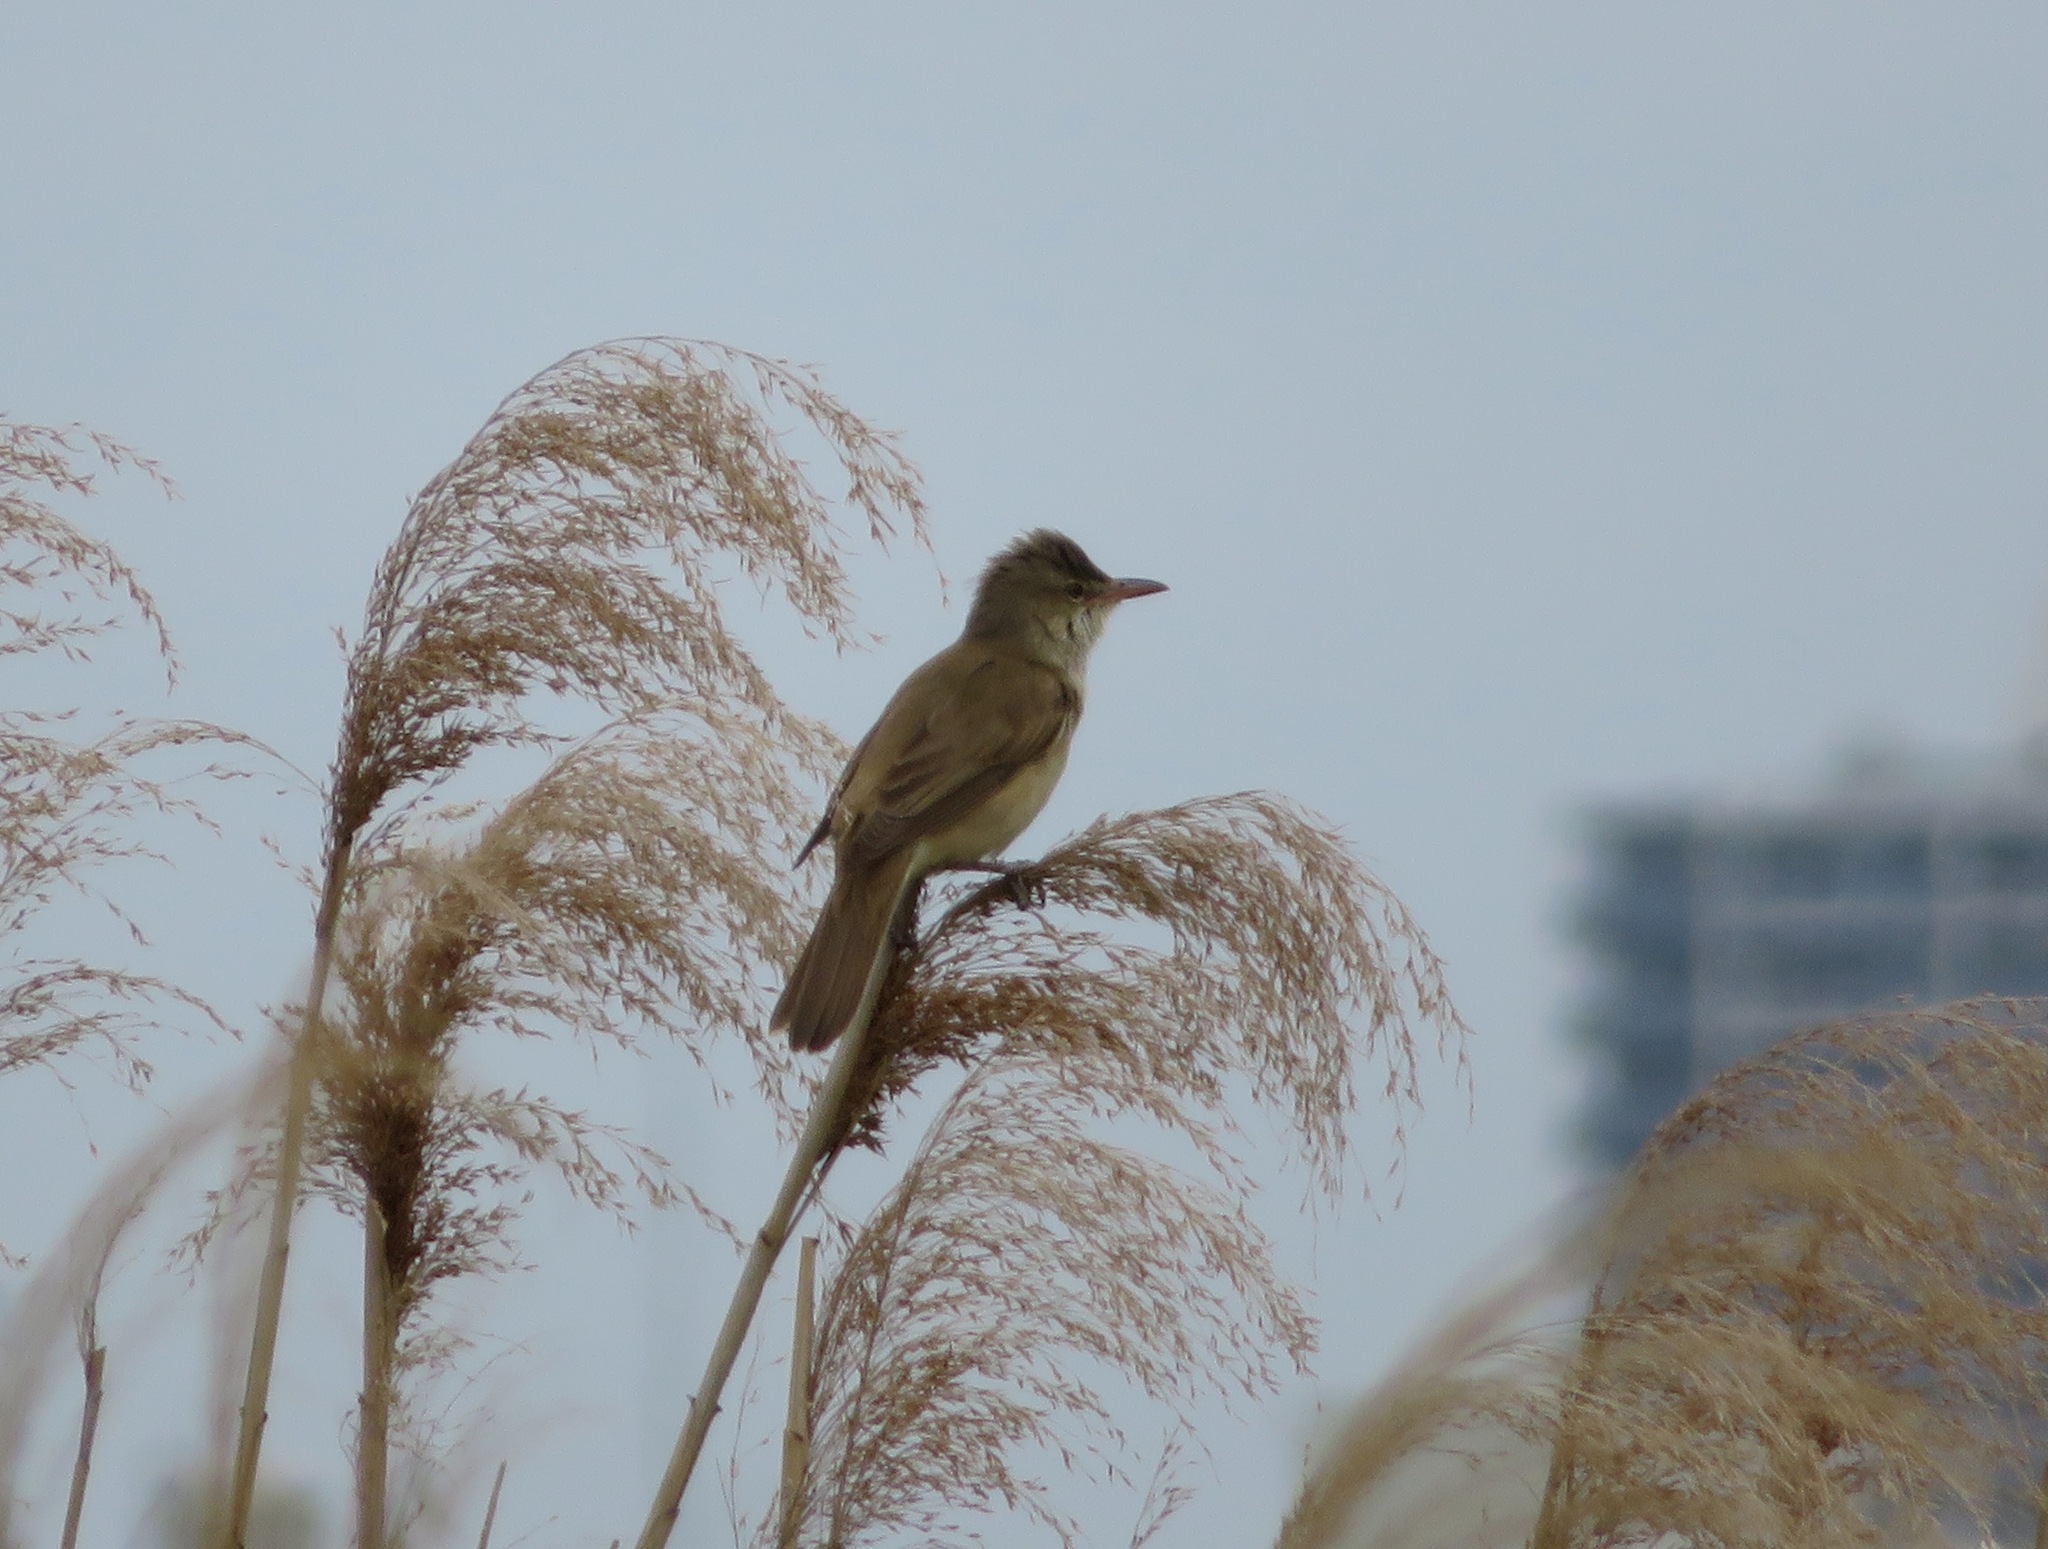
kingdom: Animalia
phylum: Chordata
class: Aves
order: Passeriformes
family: Acrocephalidae
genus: Acrocephalus
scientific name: Acrocephalus orientalis
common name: Oriental reed warbler
